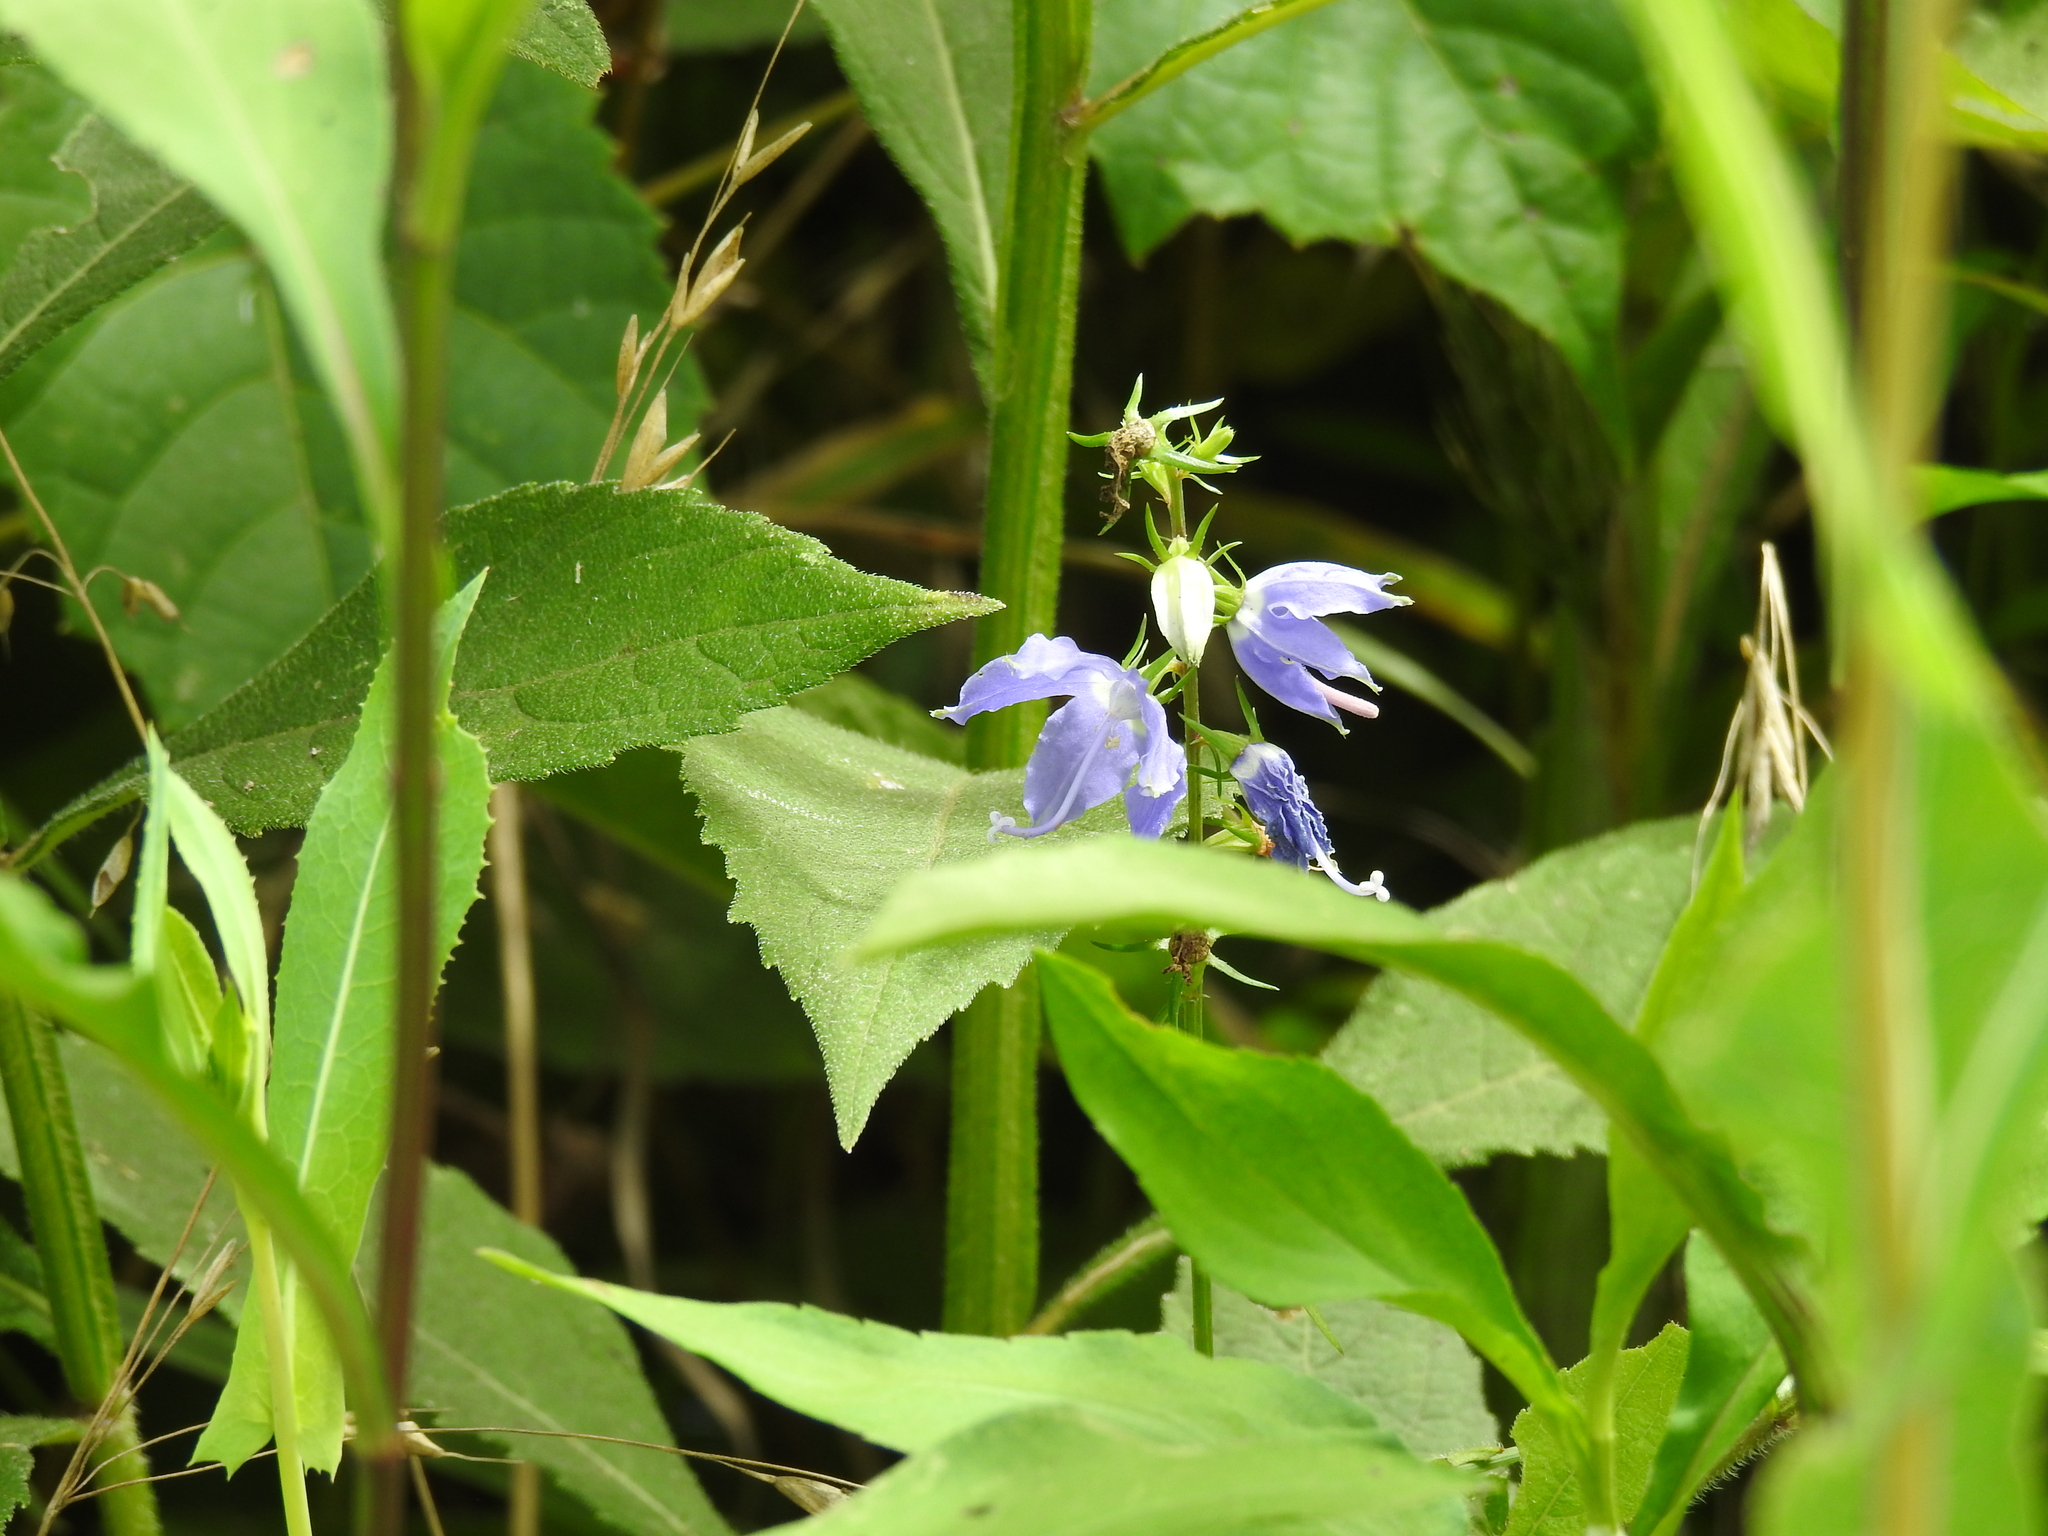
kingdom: Plantae
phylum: Tracheophyta
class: Magnoliopsida
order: Asterales
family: Campanulaceae
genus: Campanulastrum
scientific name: Campanulastrum americanum
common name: American bellflower
